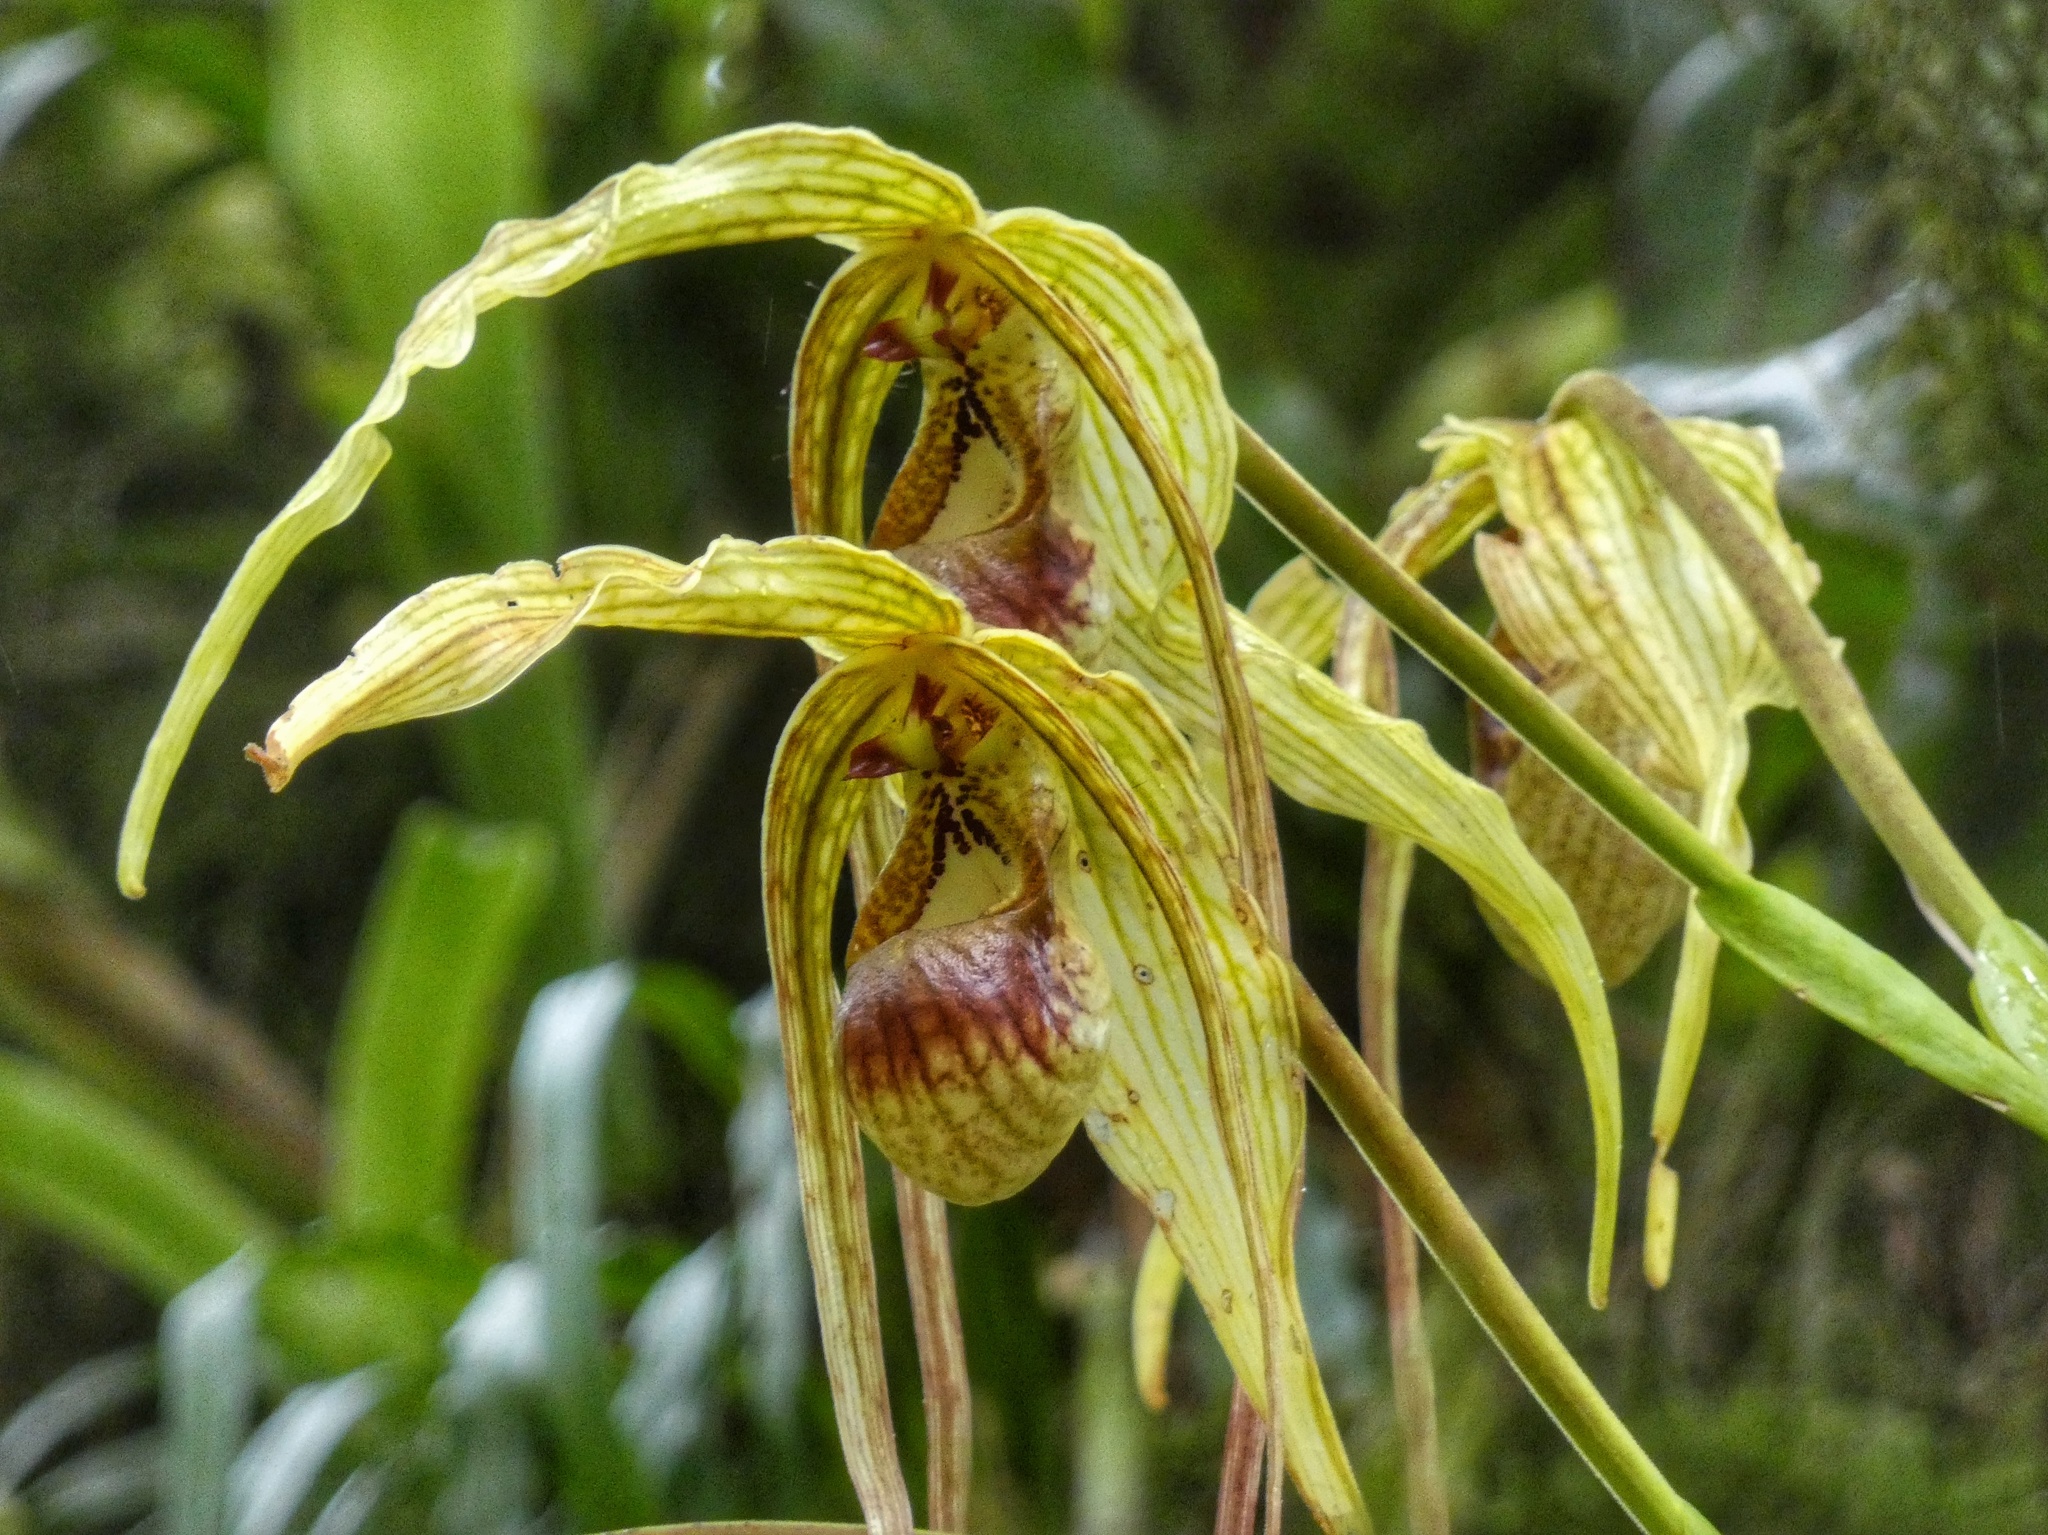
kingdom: Plantae
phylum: Tracheophyta
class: Liliopsida
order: Asparagales
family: Orchidaceae
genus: Phragmipedium
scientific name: Phragmipedium humboldtii
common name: Humboldt's phragmipedium
